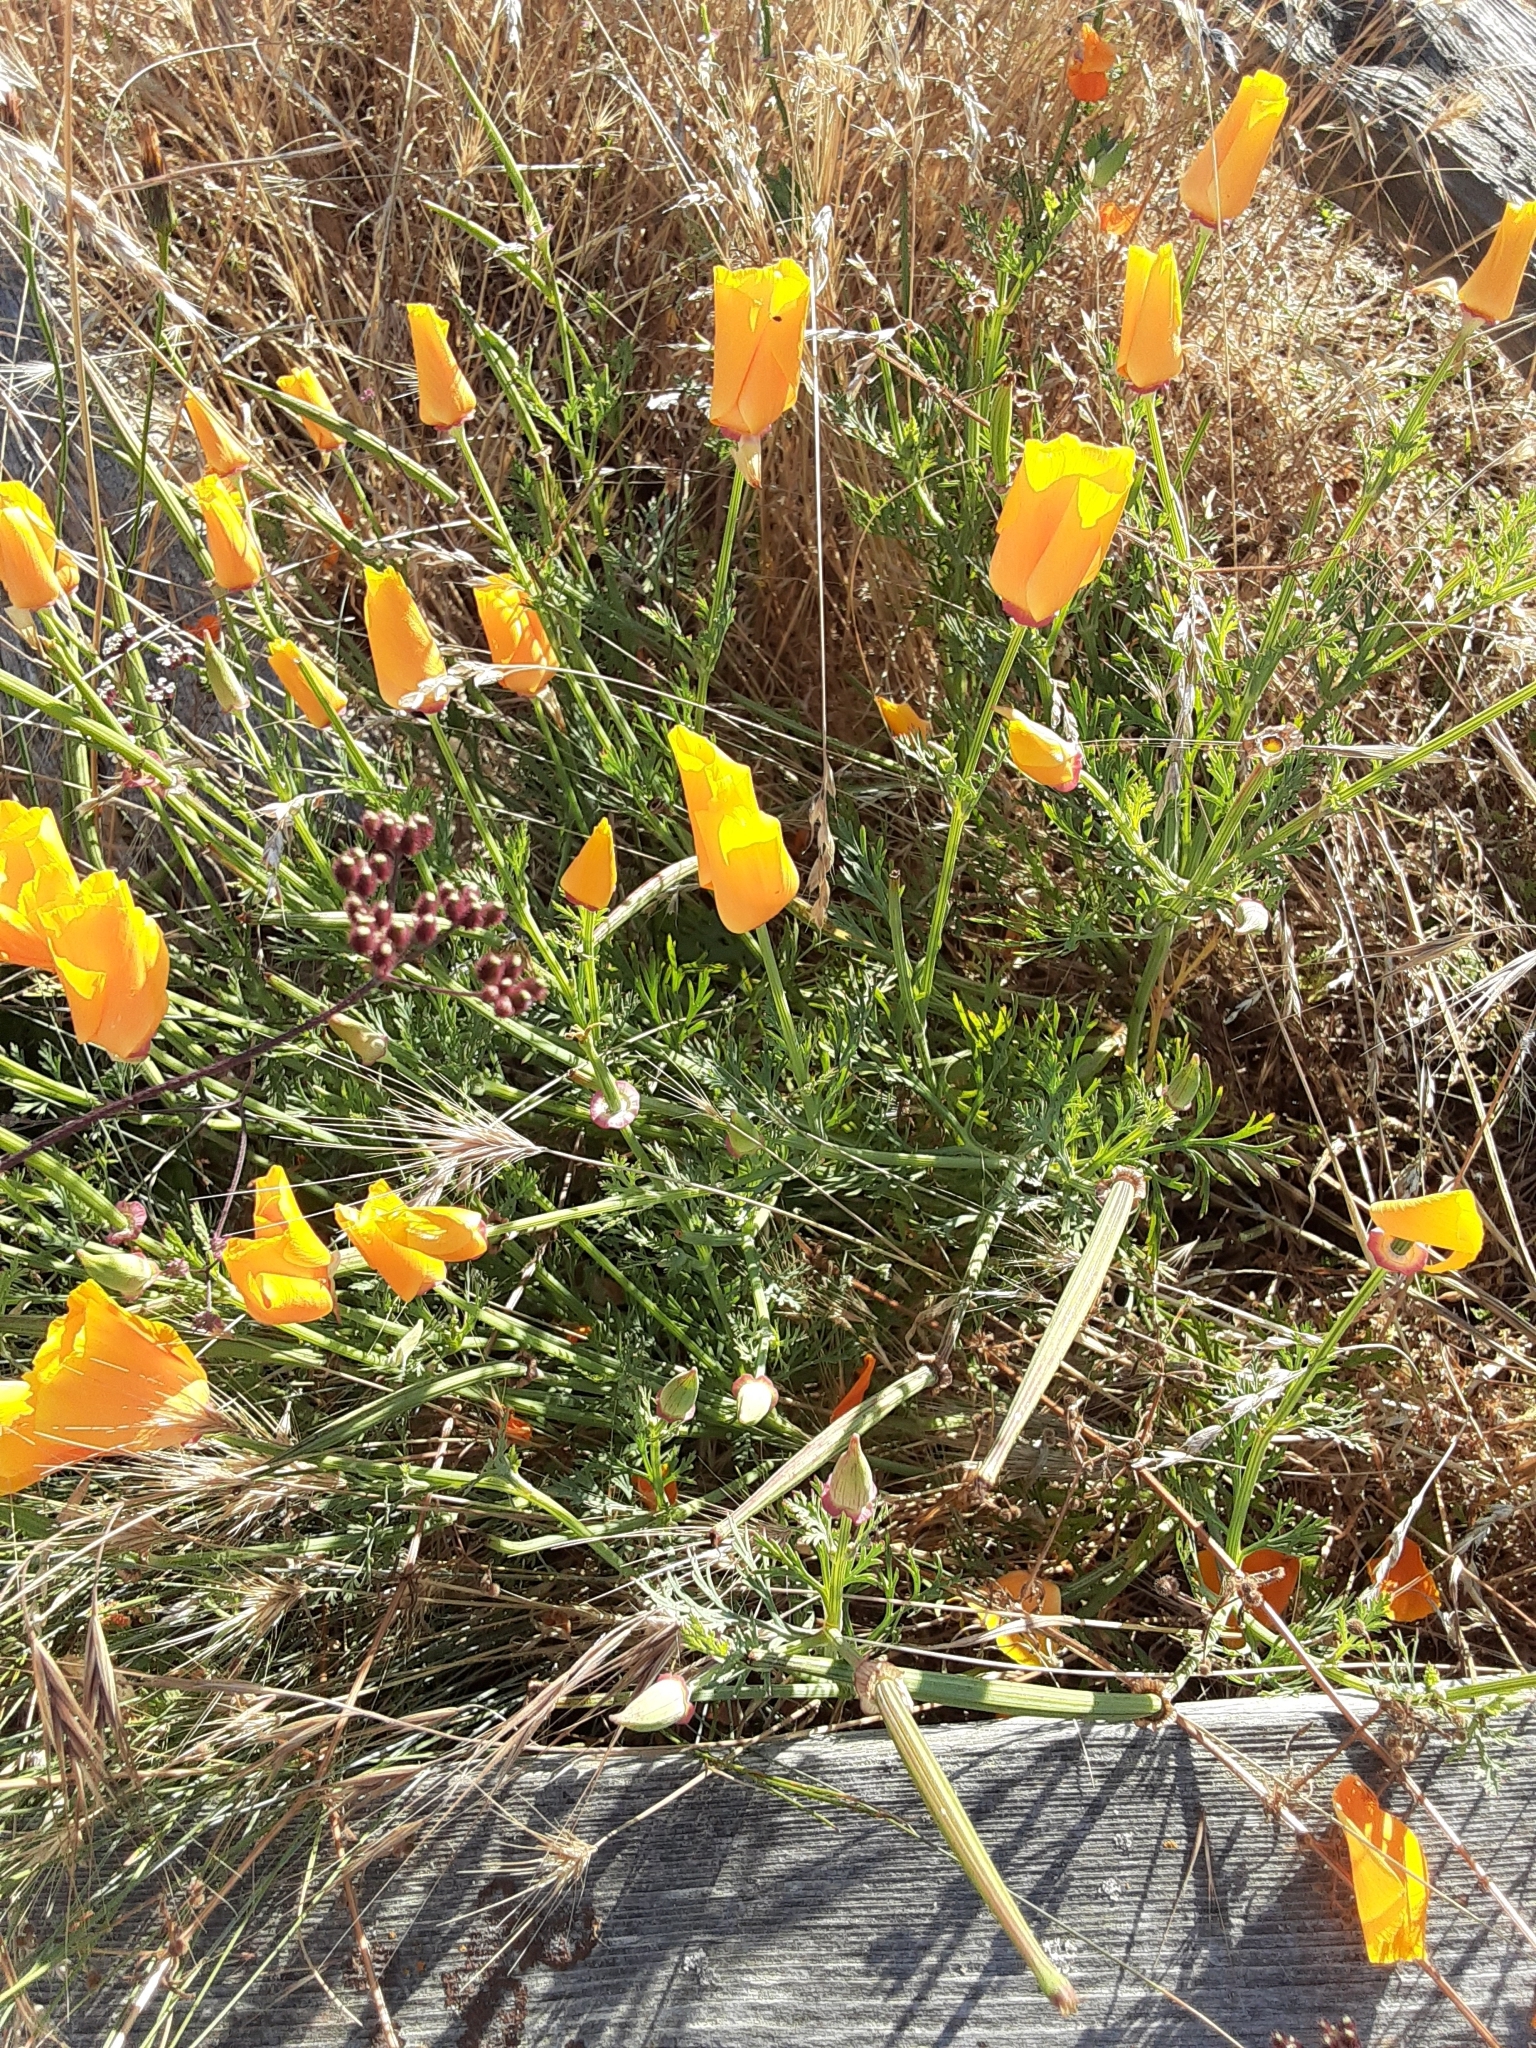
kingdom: Plantae
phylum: Tracheophyta
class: Magnoliopsida
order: Ranunculales
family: Papaveraceae
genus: Eschscholzia
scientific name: Eschscholzia californica
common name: California poppy
